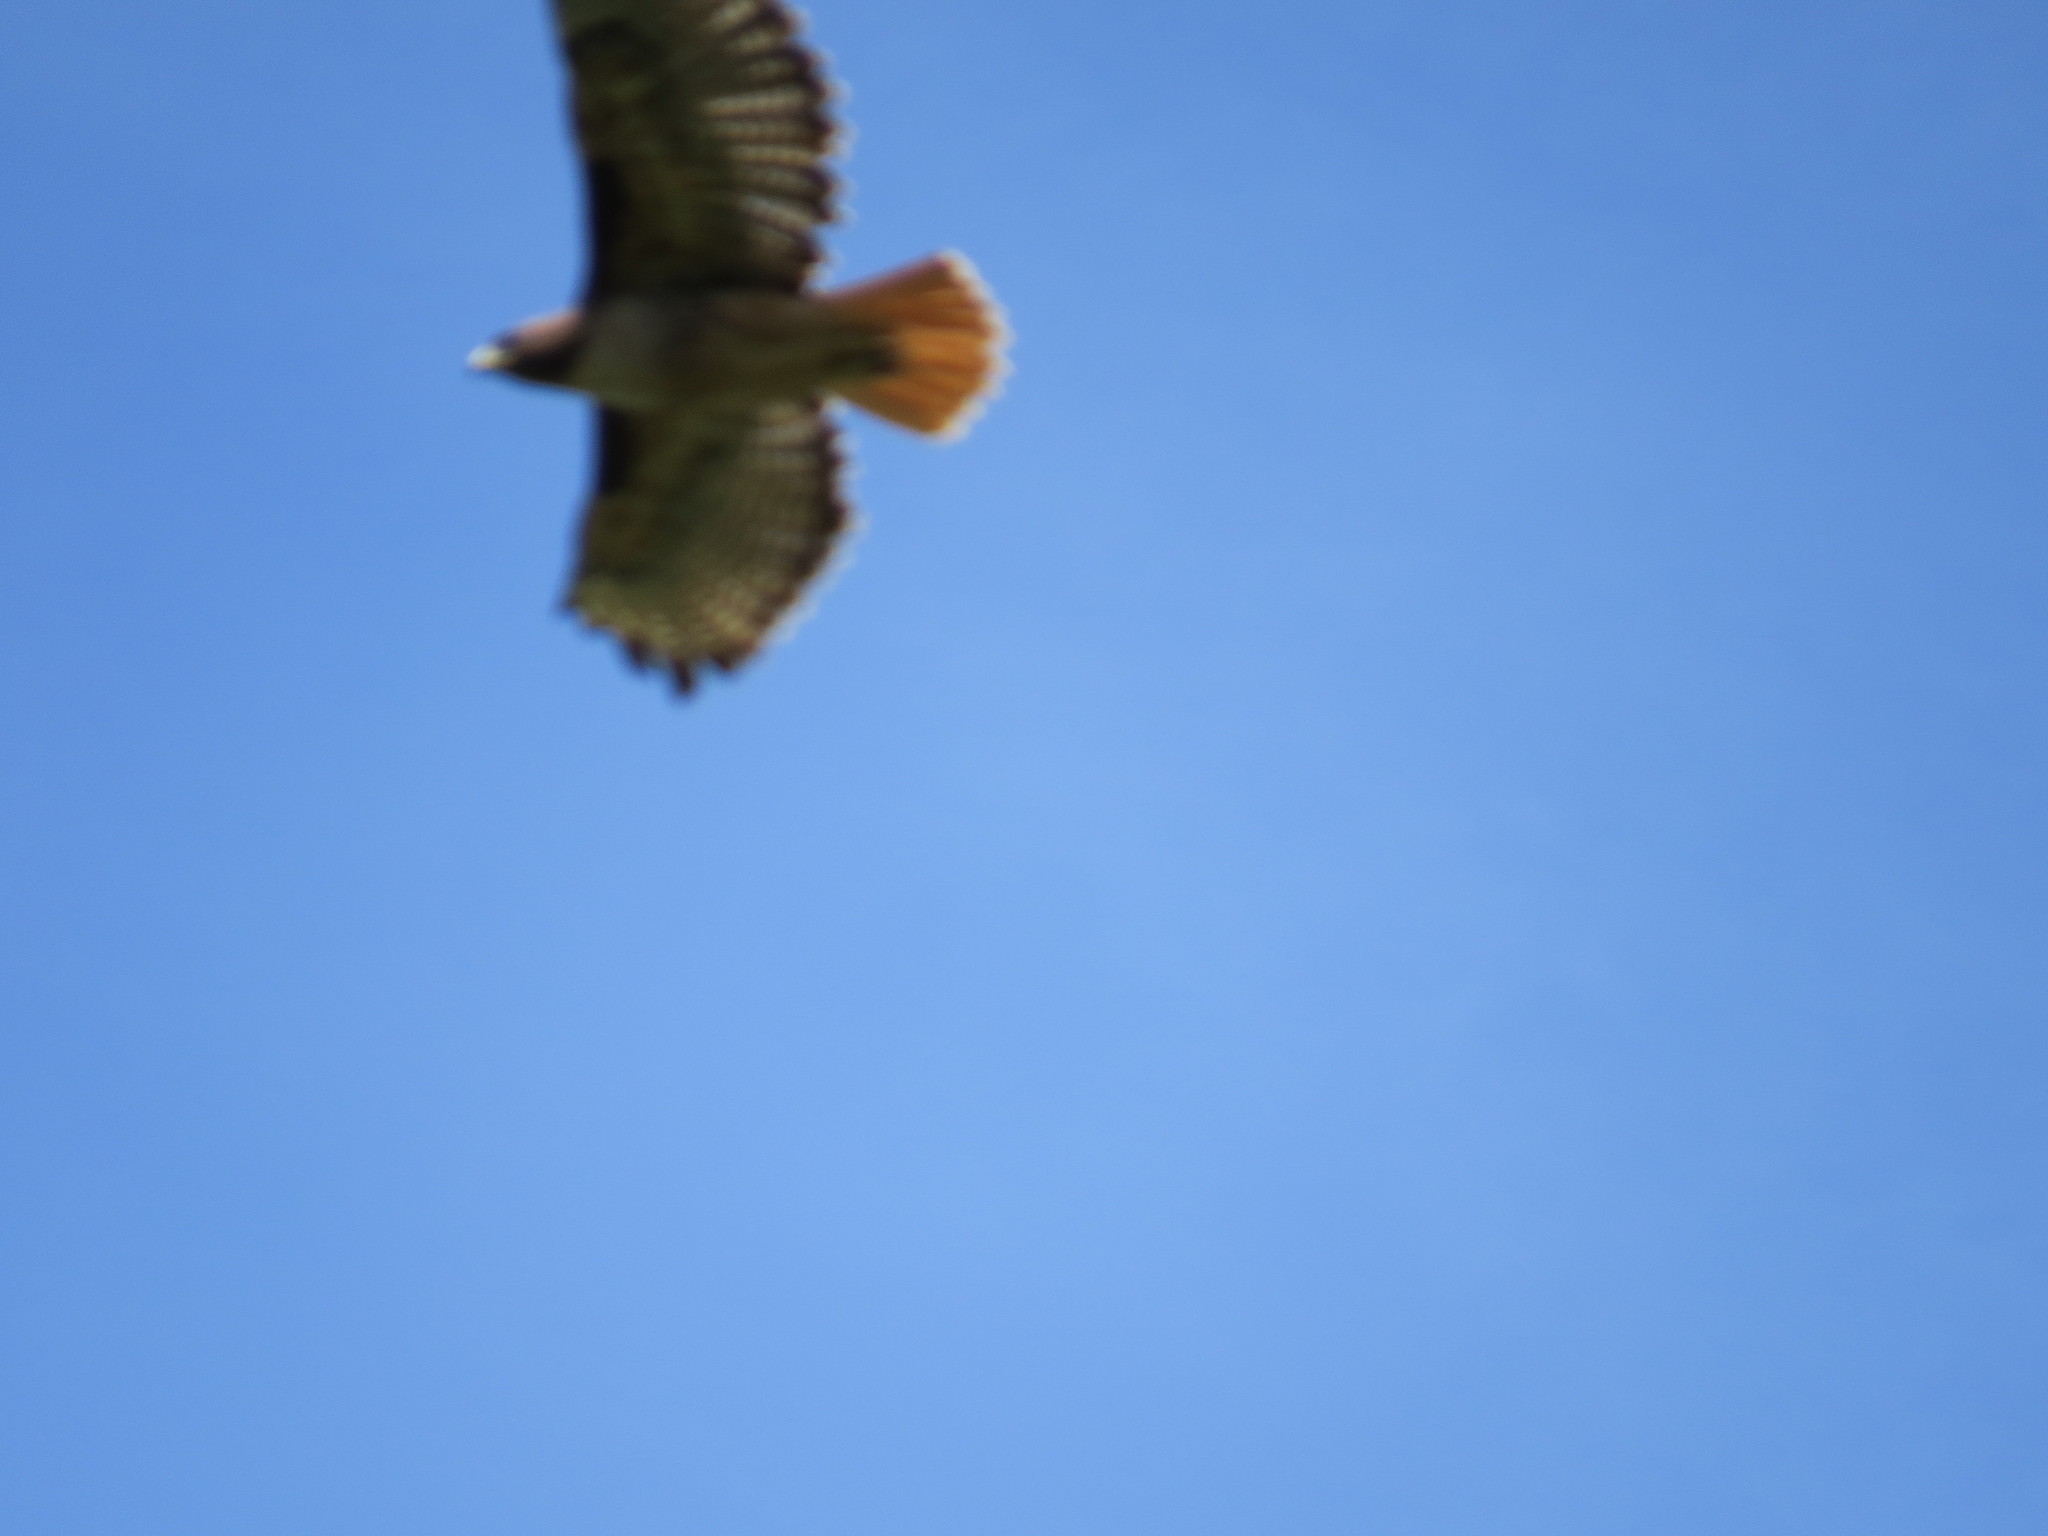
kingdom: Animalia
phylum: Chordata
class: Aves
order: Accipitriformes
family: Accipitridae
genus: Buteo
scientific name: Buteo jamaicensis
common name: Red-tailed hawk
